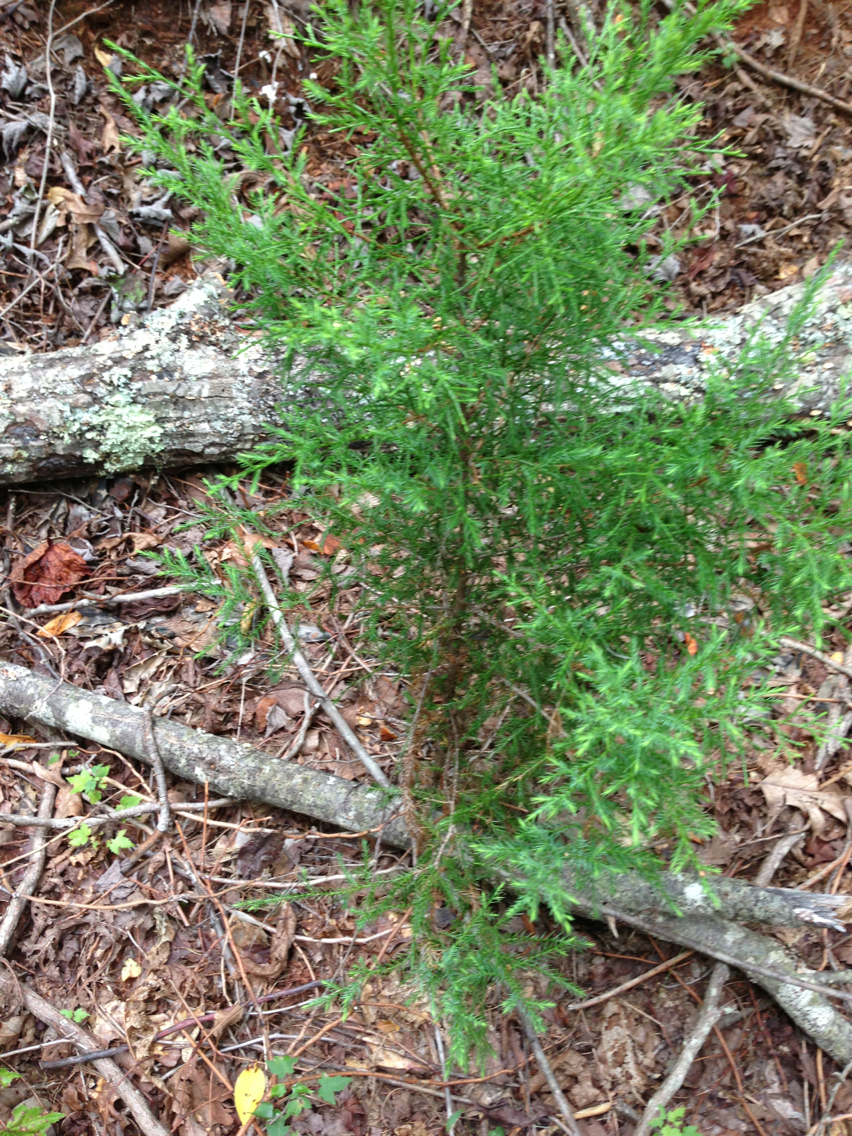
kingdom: Plantae
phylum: Tracheophyta
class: Pinopsida
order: Pinales
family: Cupressaceae
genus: Juniperus
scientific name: Juniperus virginiana
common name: Red juniper
